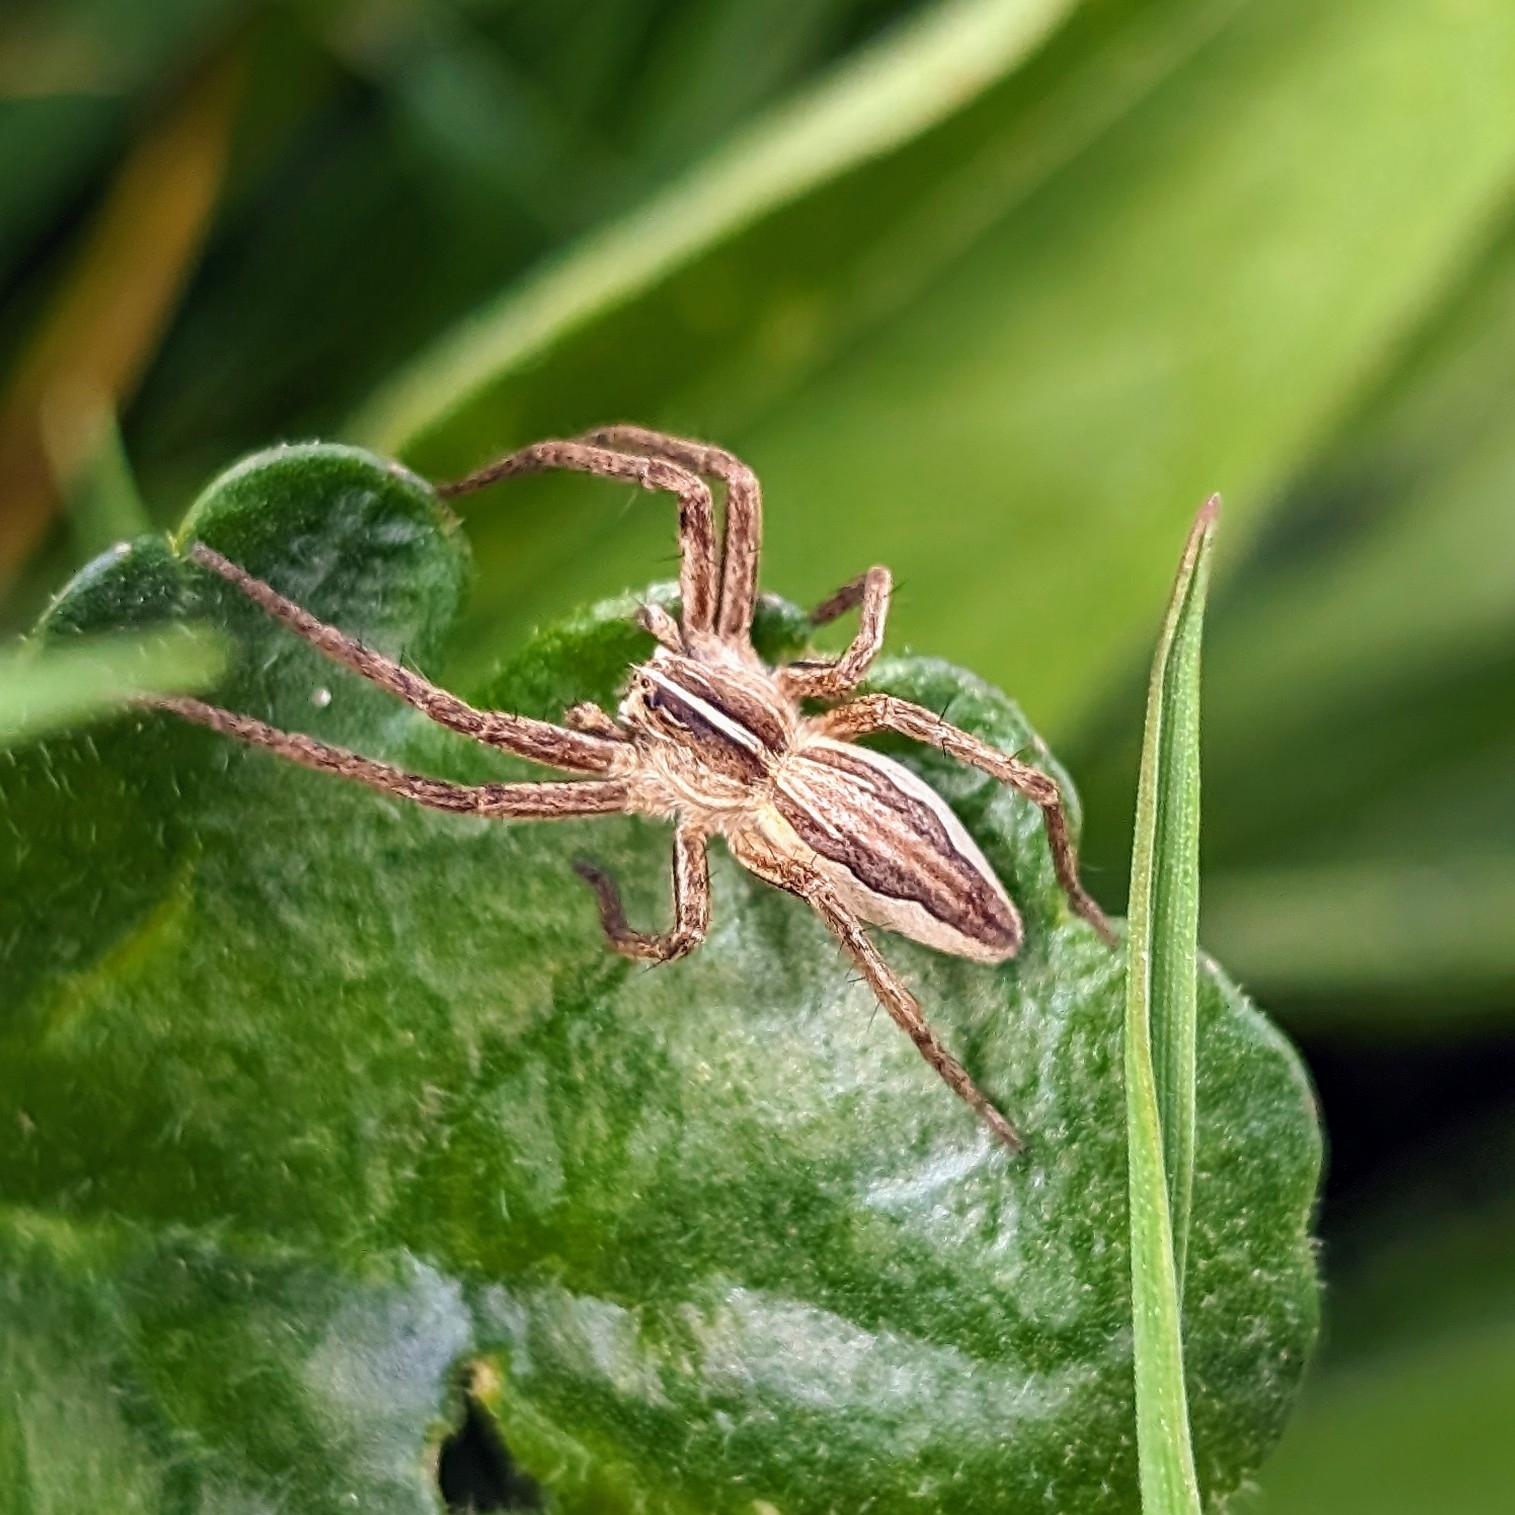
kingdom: Animalia
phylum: Arthropoda
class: Arachnida
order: Araneae
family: Pisauridae
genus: Pisaura
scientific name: Pisaura mirabilis
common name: Tent spider
